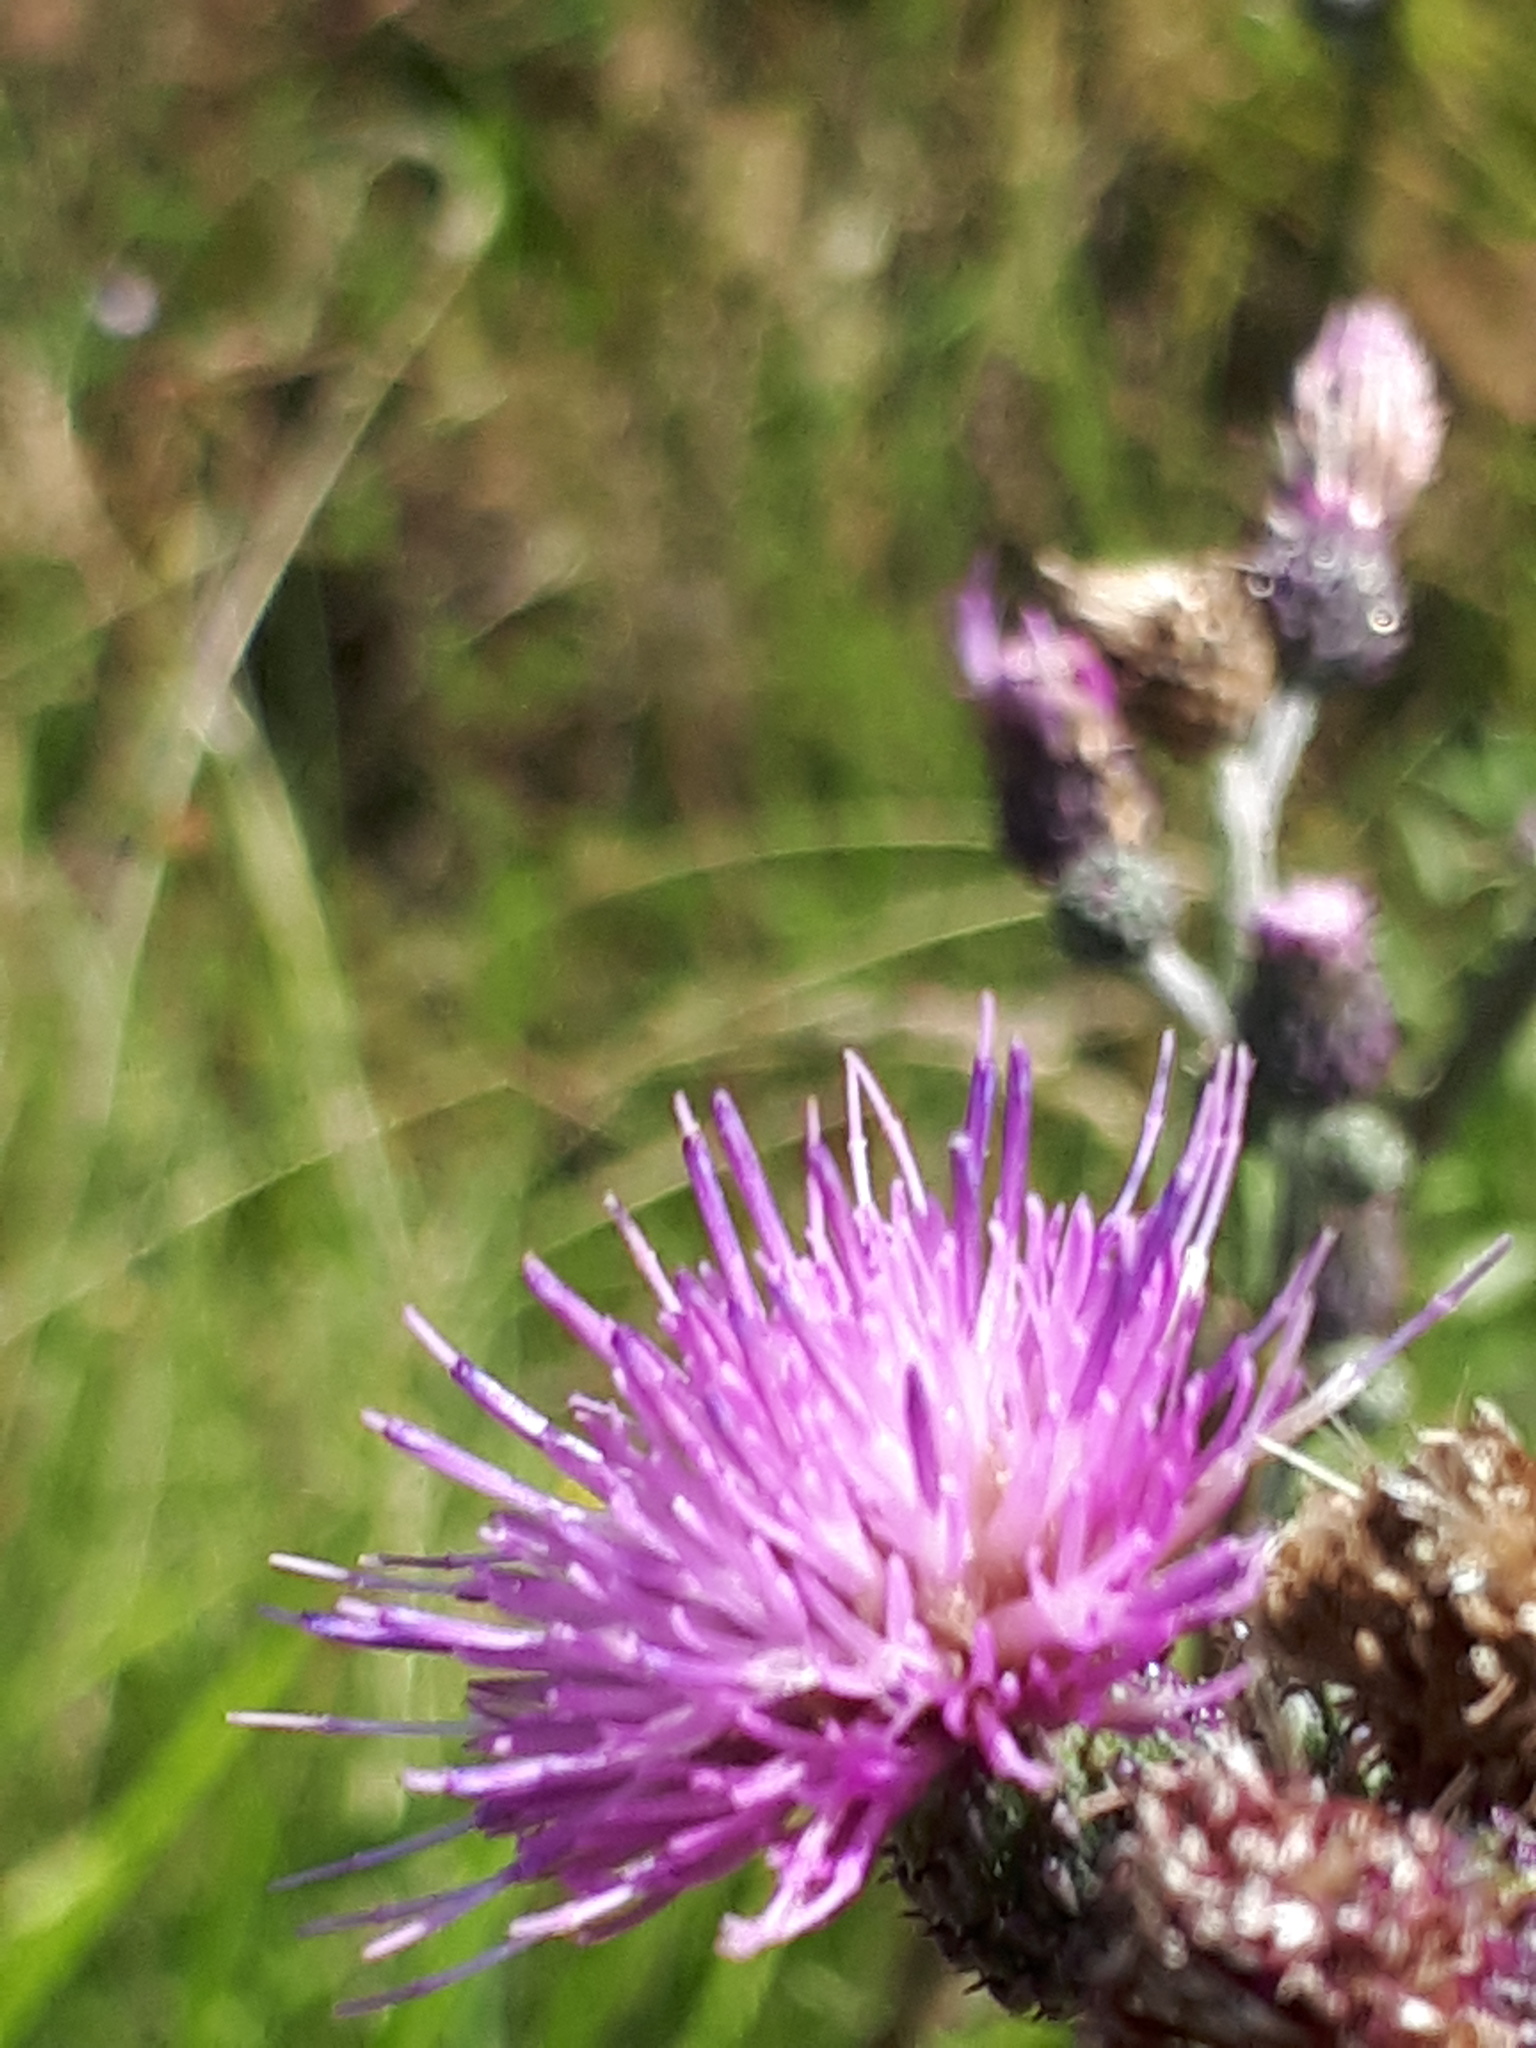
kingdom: Plantae
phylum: Tracheophyta
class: Magnoliopsida
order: Asterales
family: Asteraceae
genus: Cirsium
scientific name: Cirsium palustre
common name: Marsh thistle
